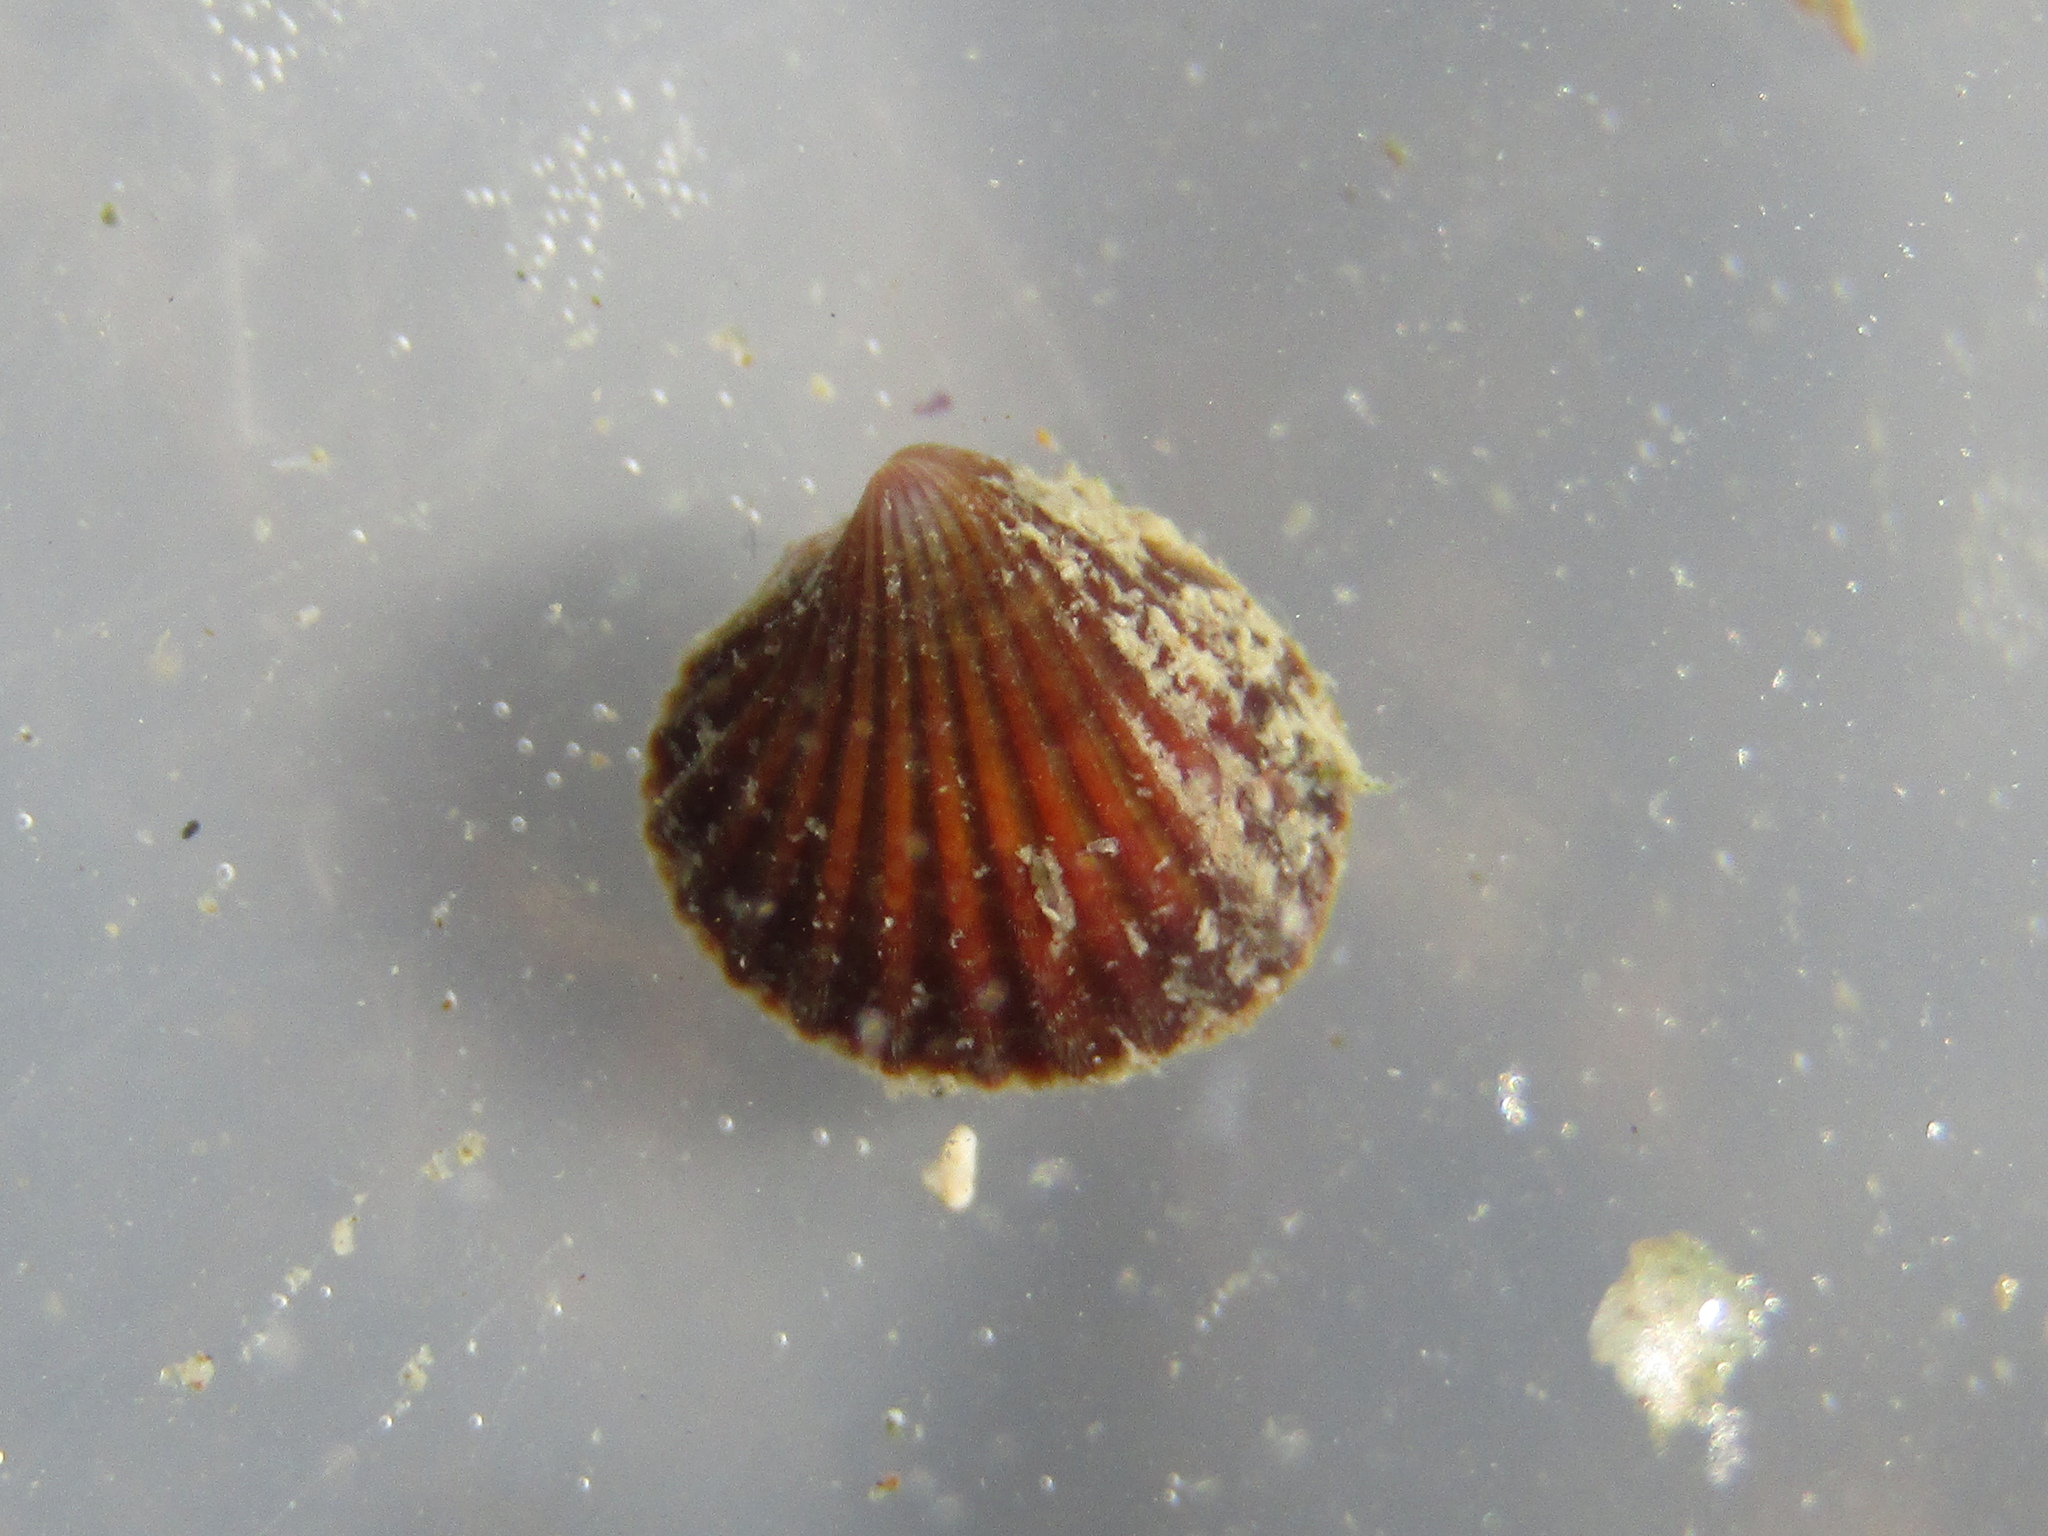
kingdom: Animalia
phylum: Mollusca
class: Bivalvia
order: Carditida
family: Carditidae
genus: Pleuromeris
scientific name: Pleuromeris zelandica
